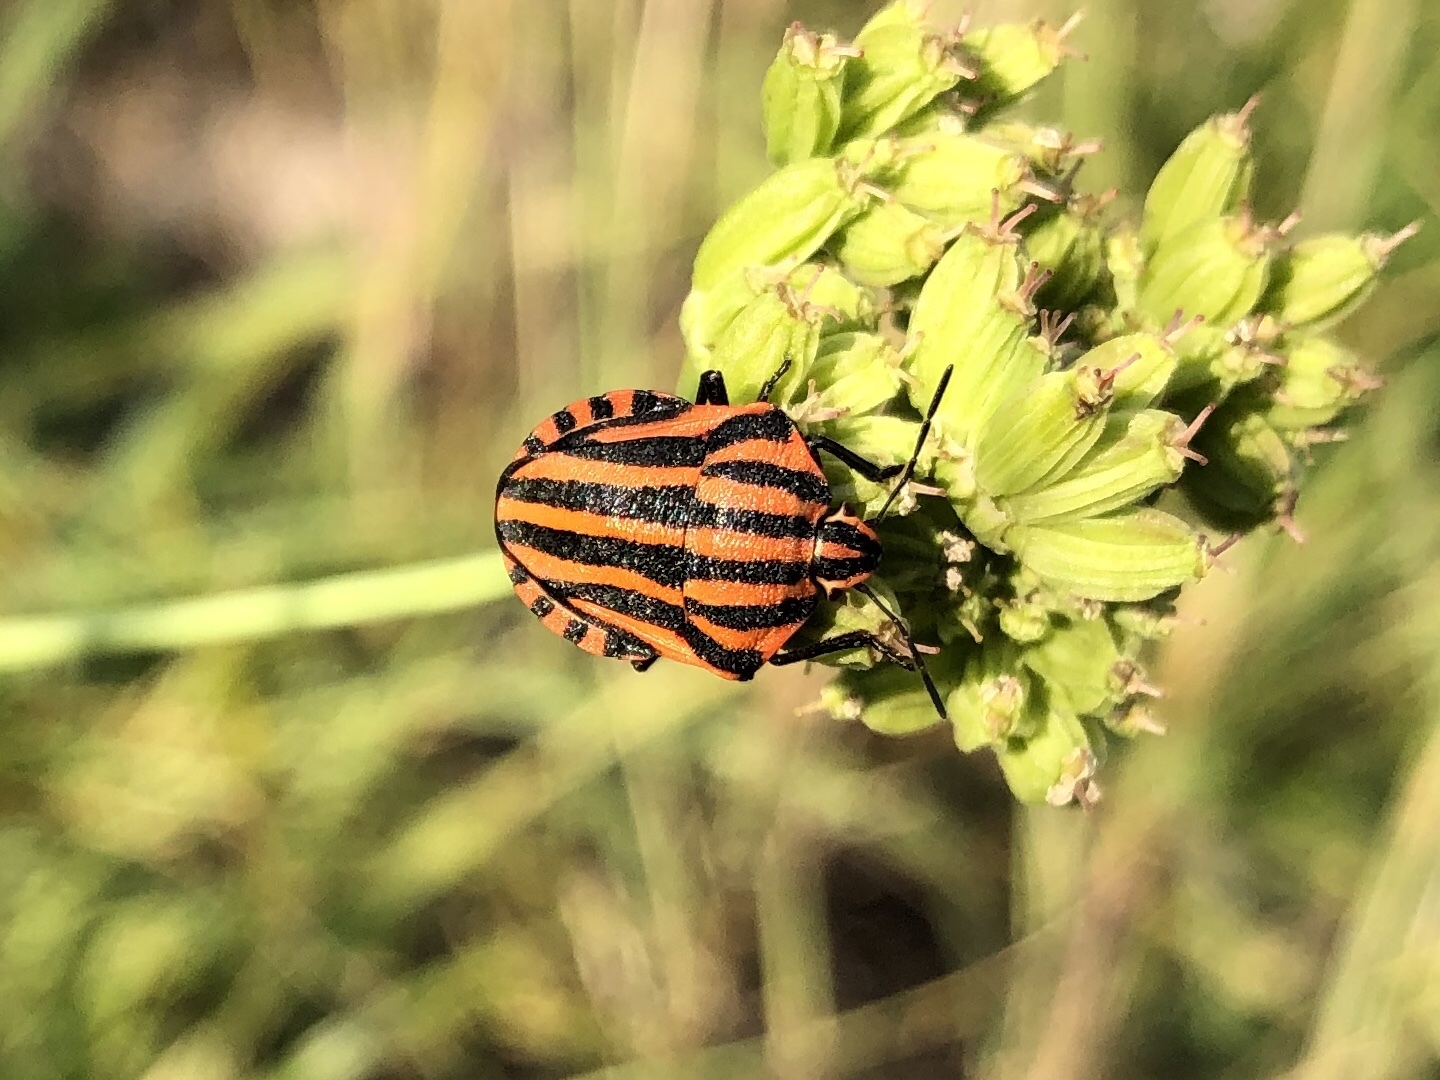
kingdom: Animalia
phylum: Arthropoda
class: Insecta
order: Hemiptera
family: Pentatomidae
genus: Graphosoma
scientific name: Graphosoma italicum
